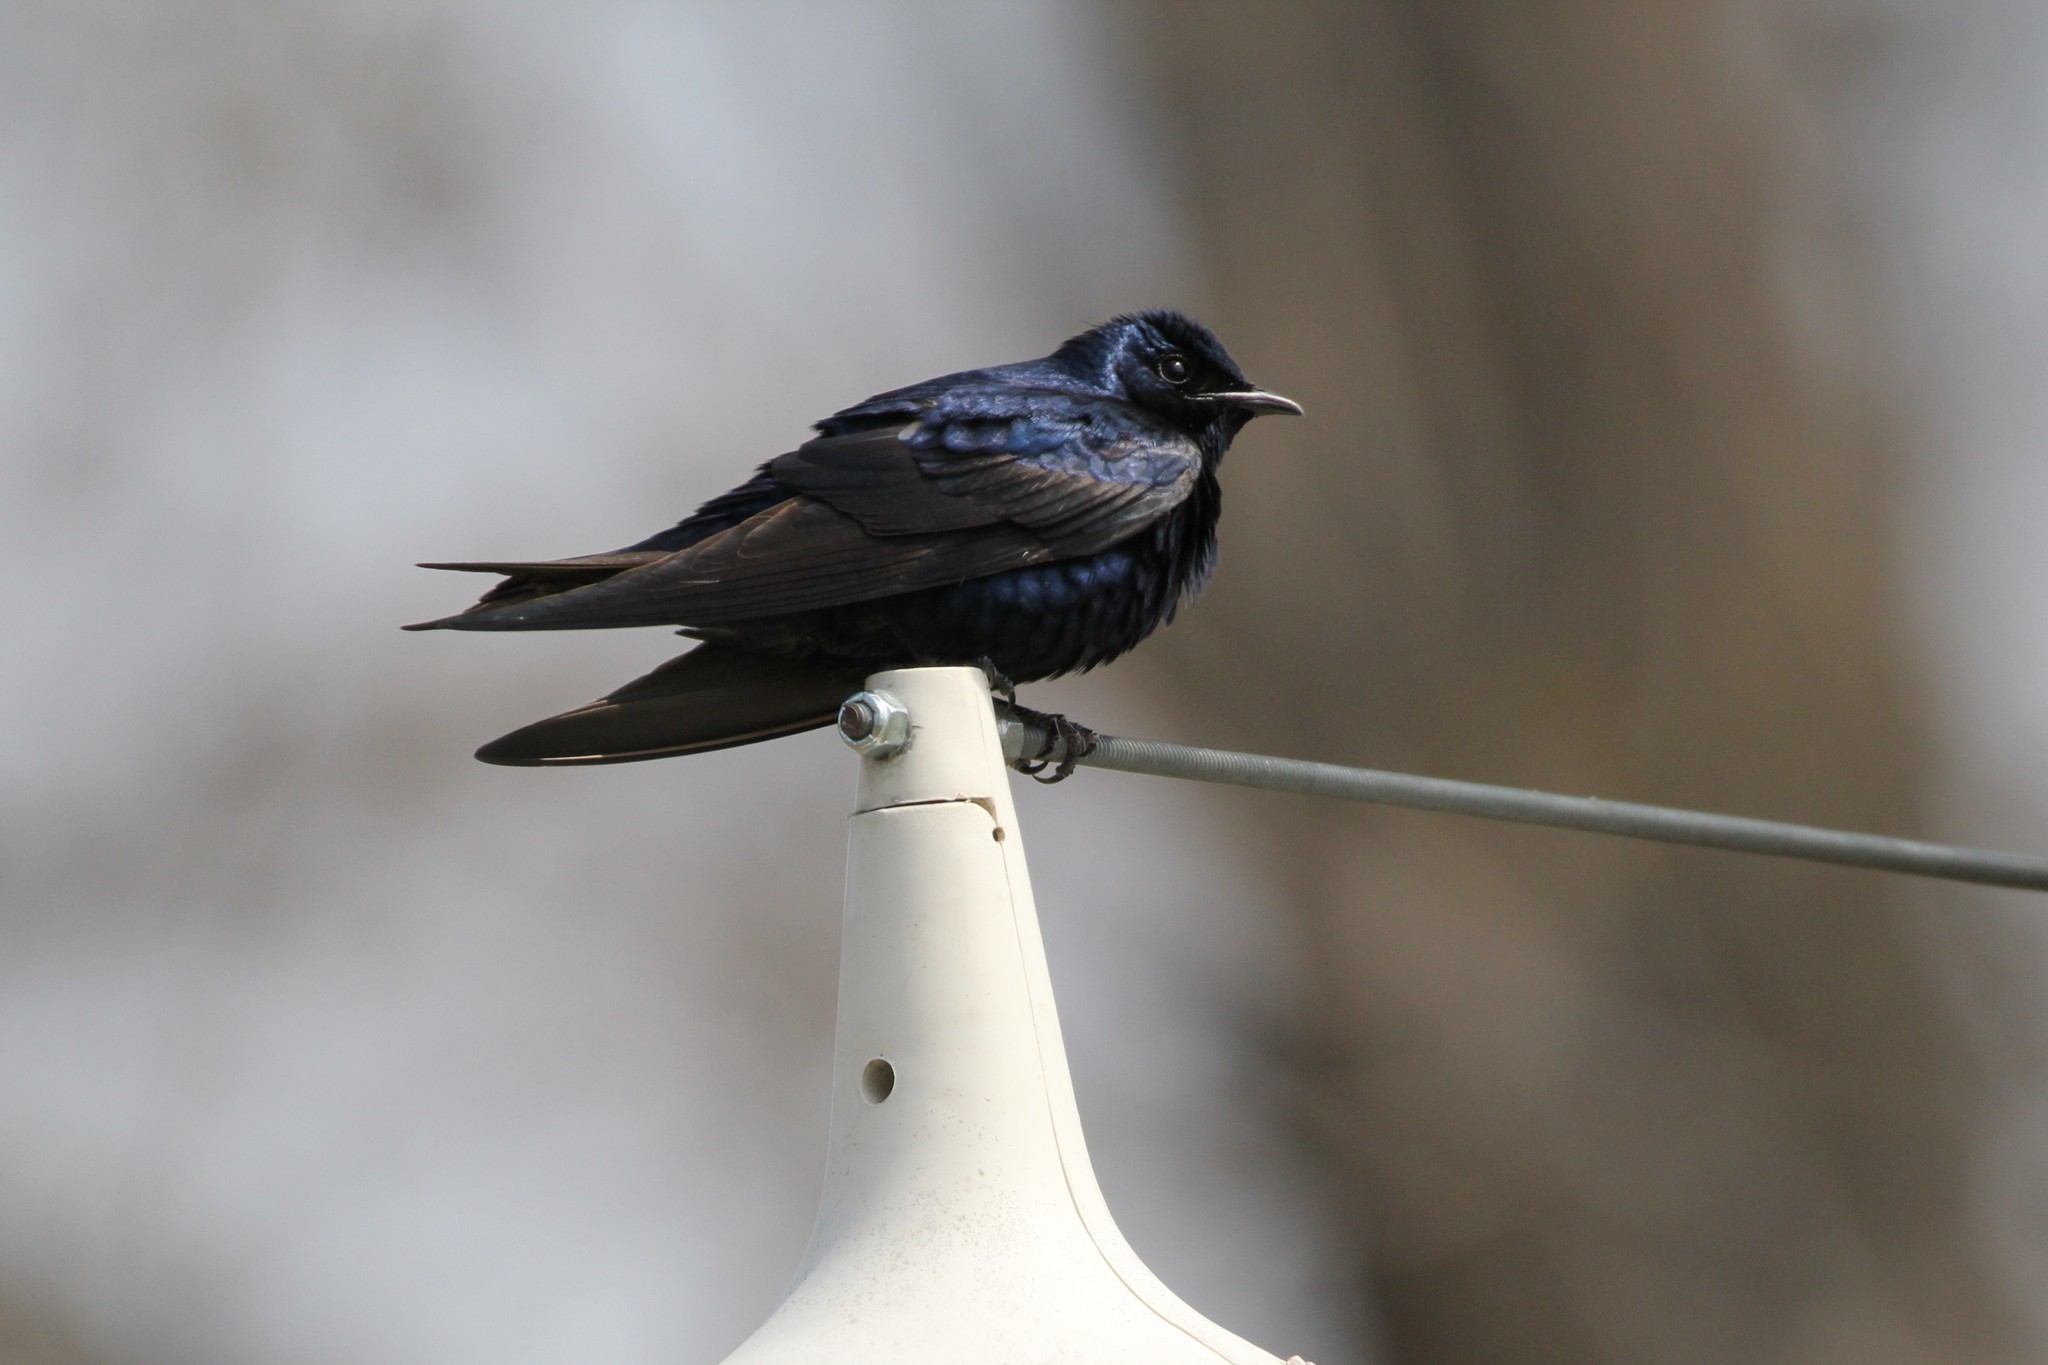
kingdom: Animalia
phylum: Chordata
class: Aves
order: Passeriformes
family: Hirundinidae
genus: Progne
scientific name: Progne subis
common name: Purple martin
